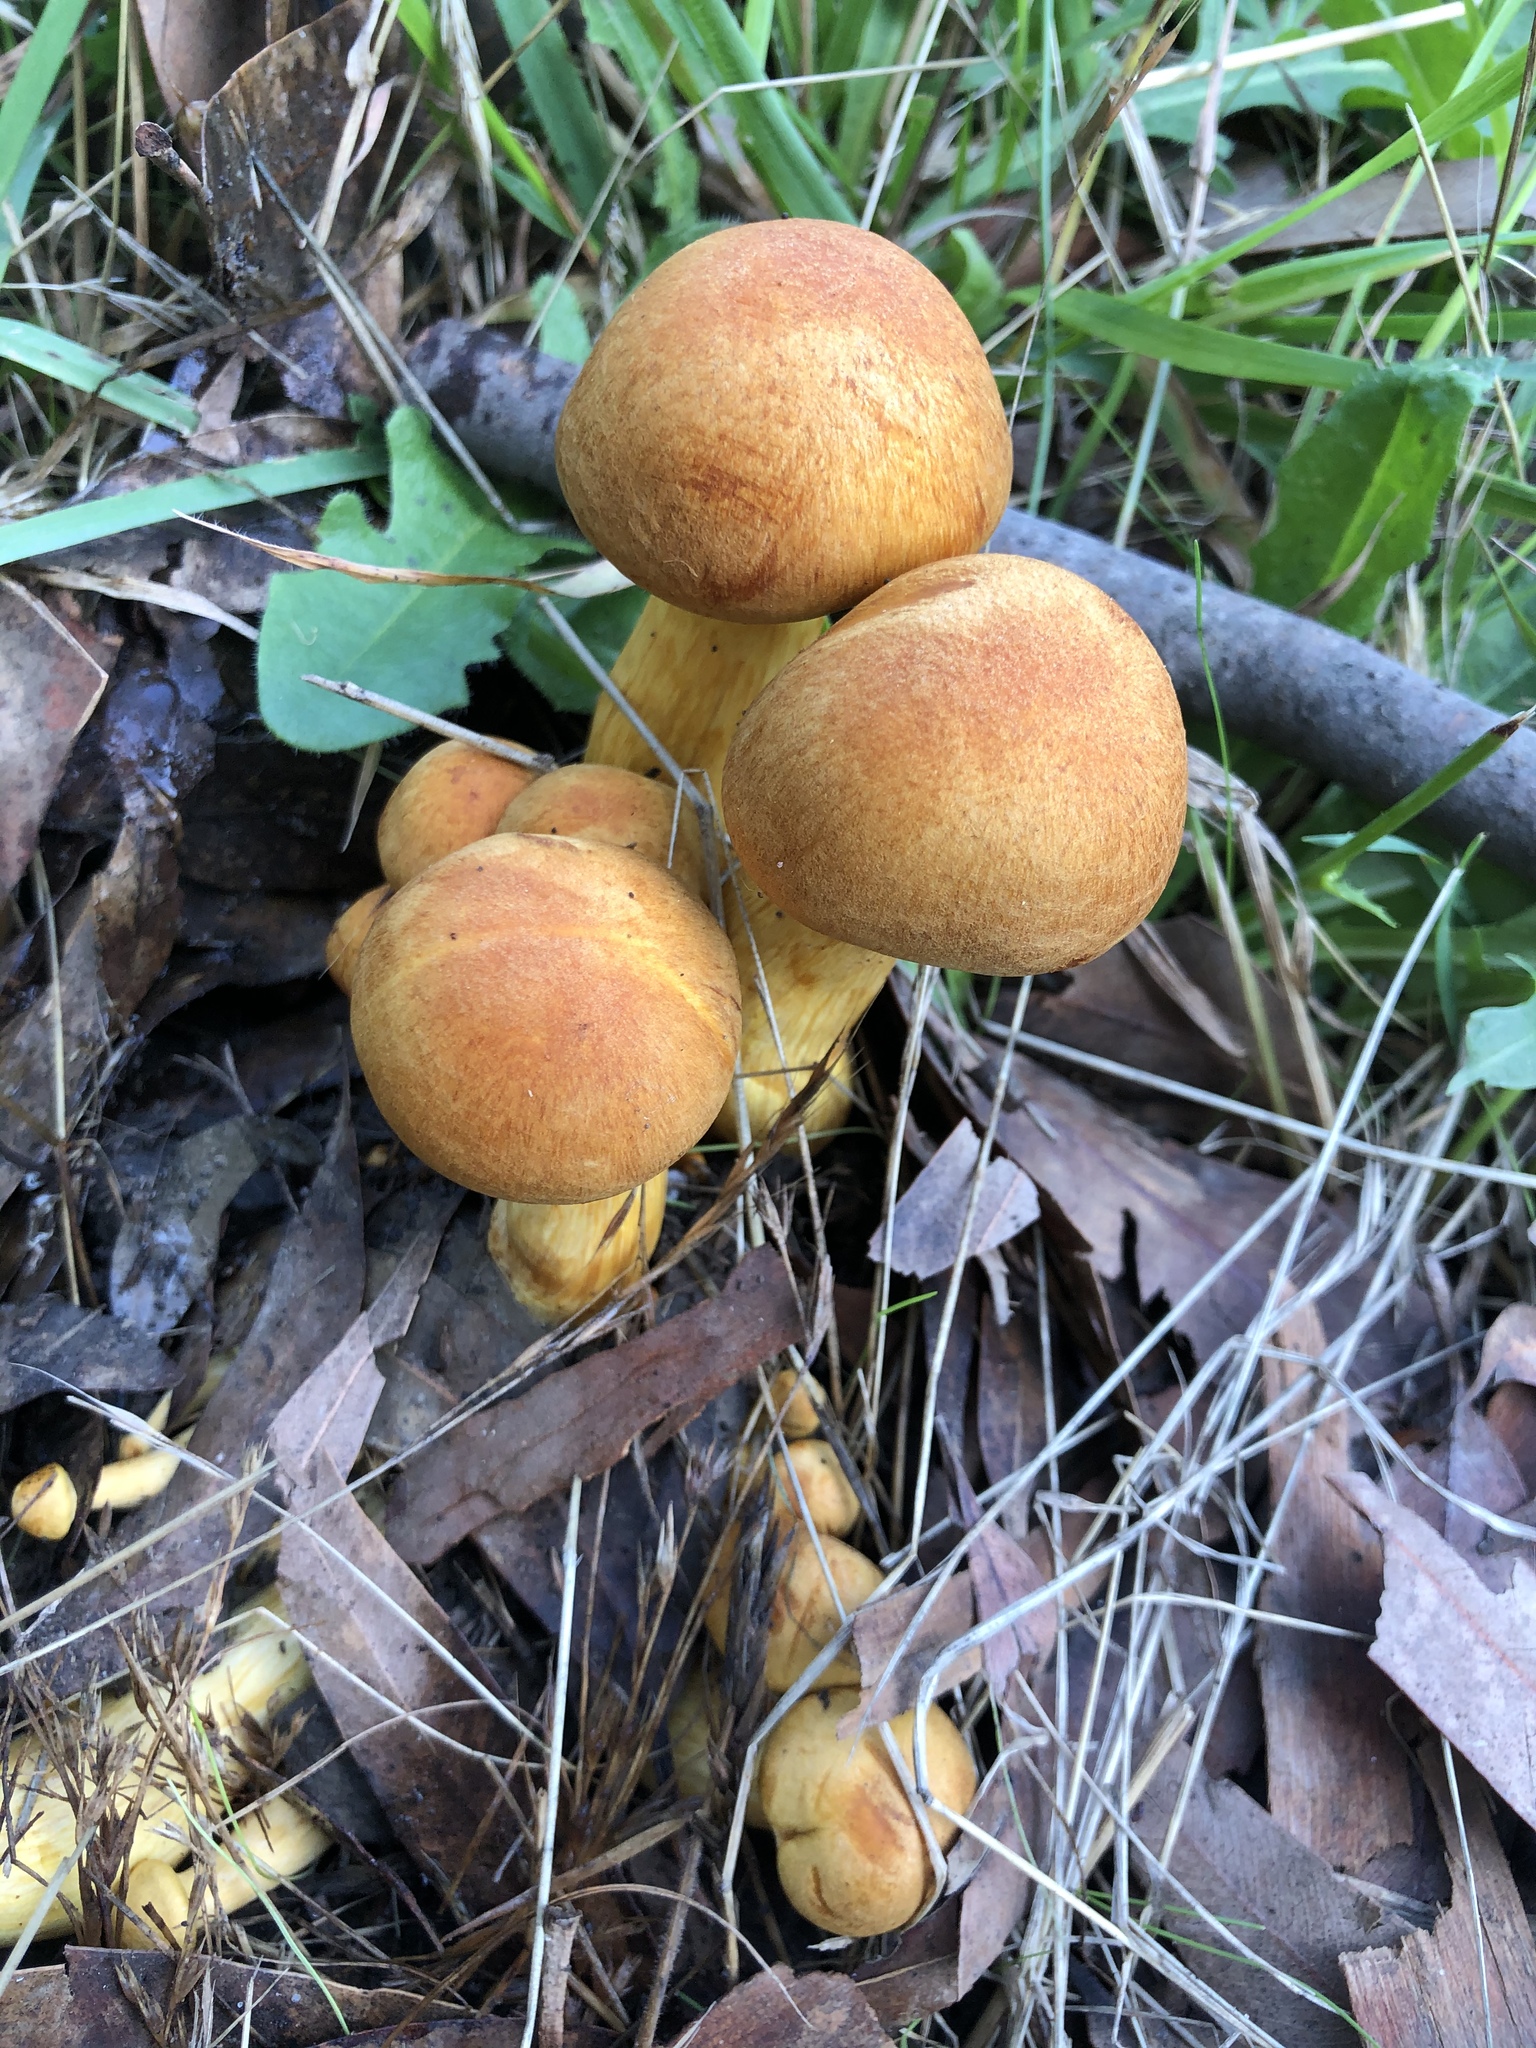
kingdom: Fungi
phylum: Basidiomycota
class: Agaricomycetes
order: Agaricales
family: Hymenogastraceae
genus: Gymnopilus
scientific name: Gymnopilus junonius
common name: Spectacular rustgill
